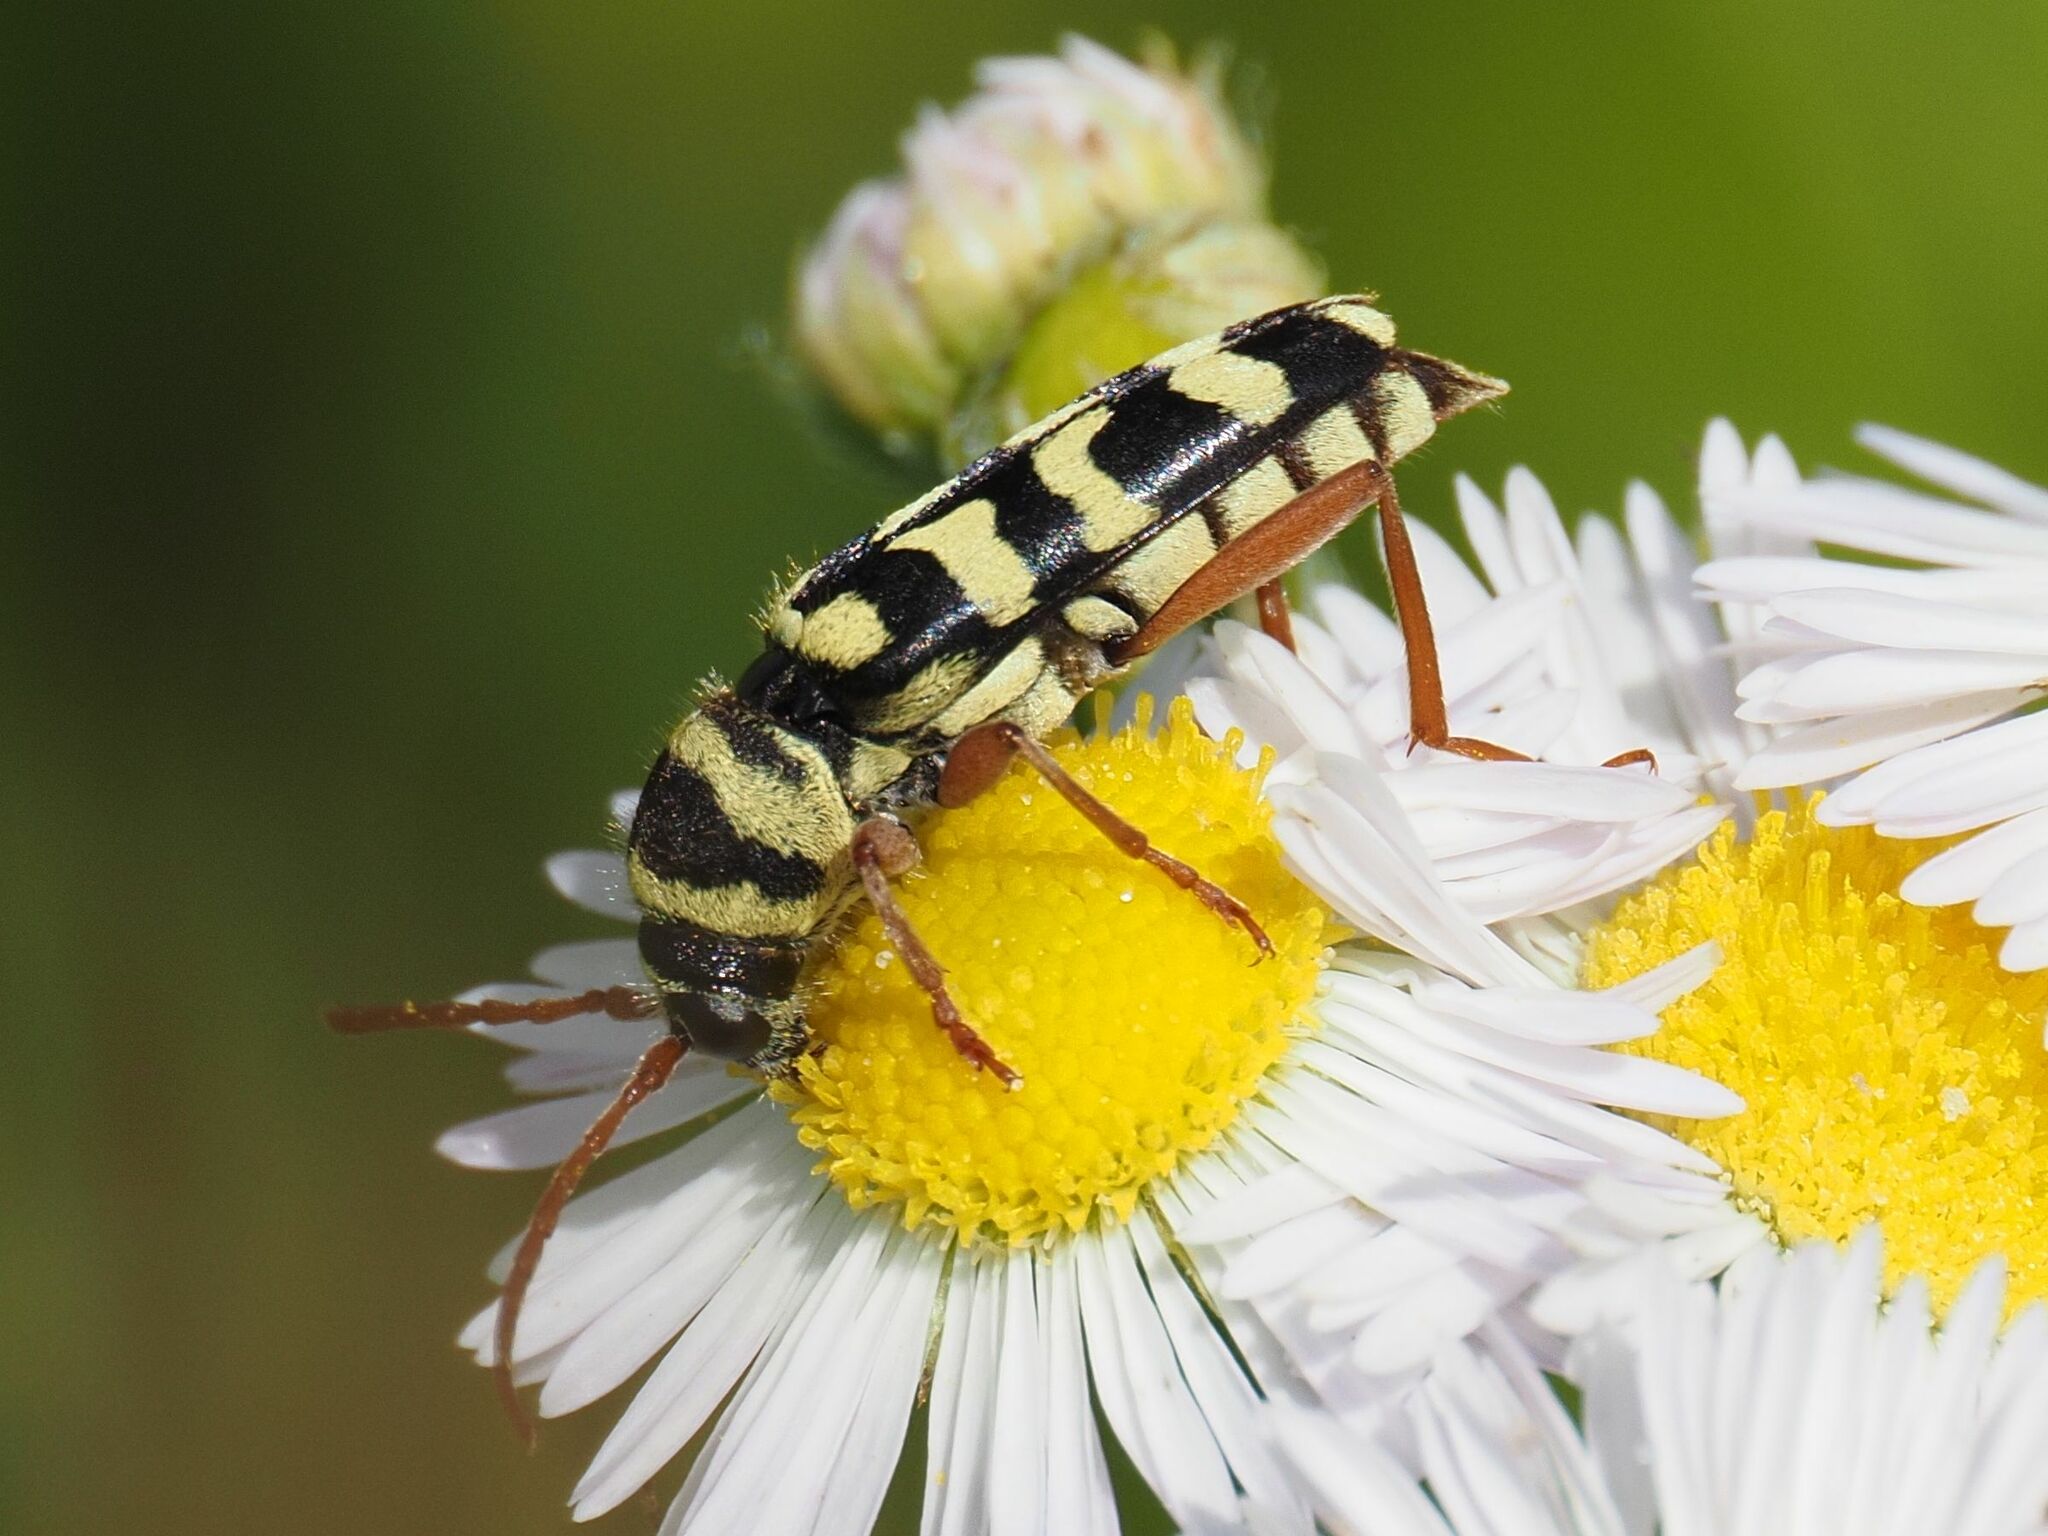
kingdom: Animalia
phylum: Arthropoda
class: Insecta
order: Coleoptera
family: Cerambycidae
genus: Plagionotus
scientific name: Plagionotus floralis
